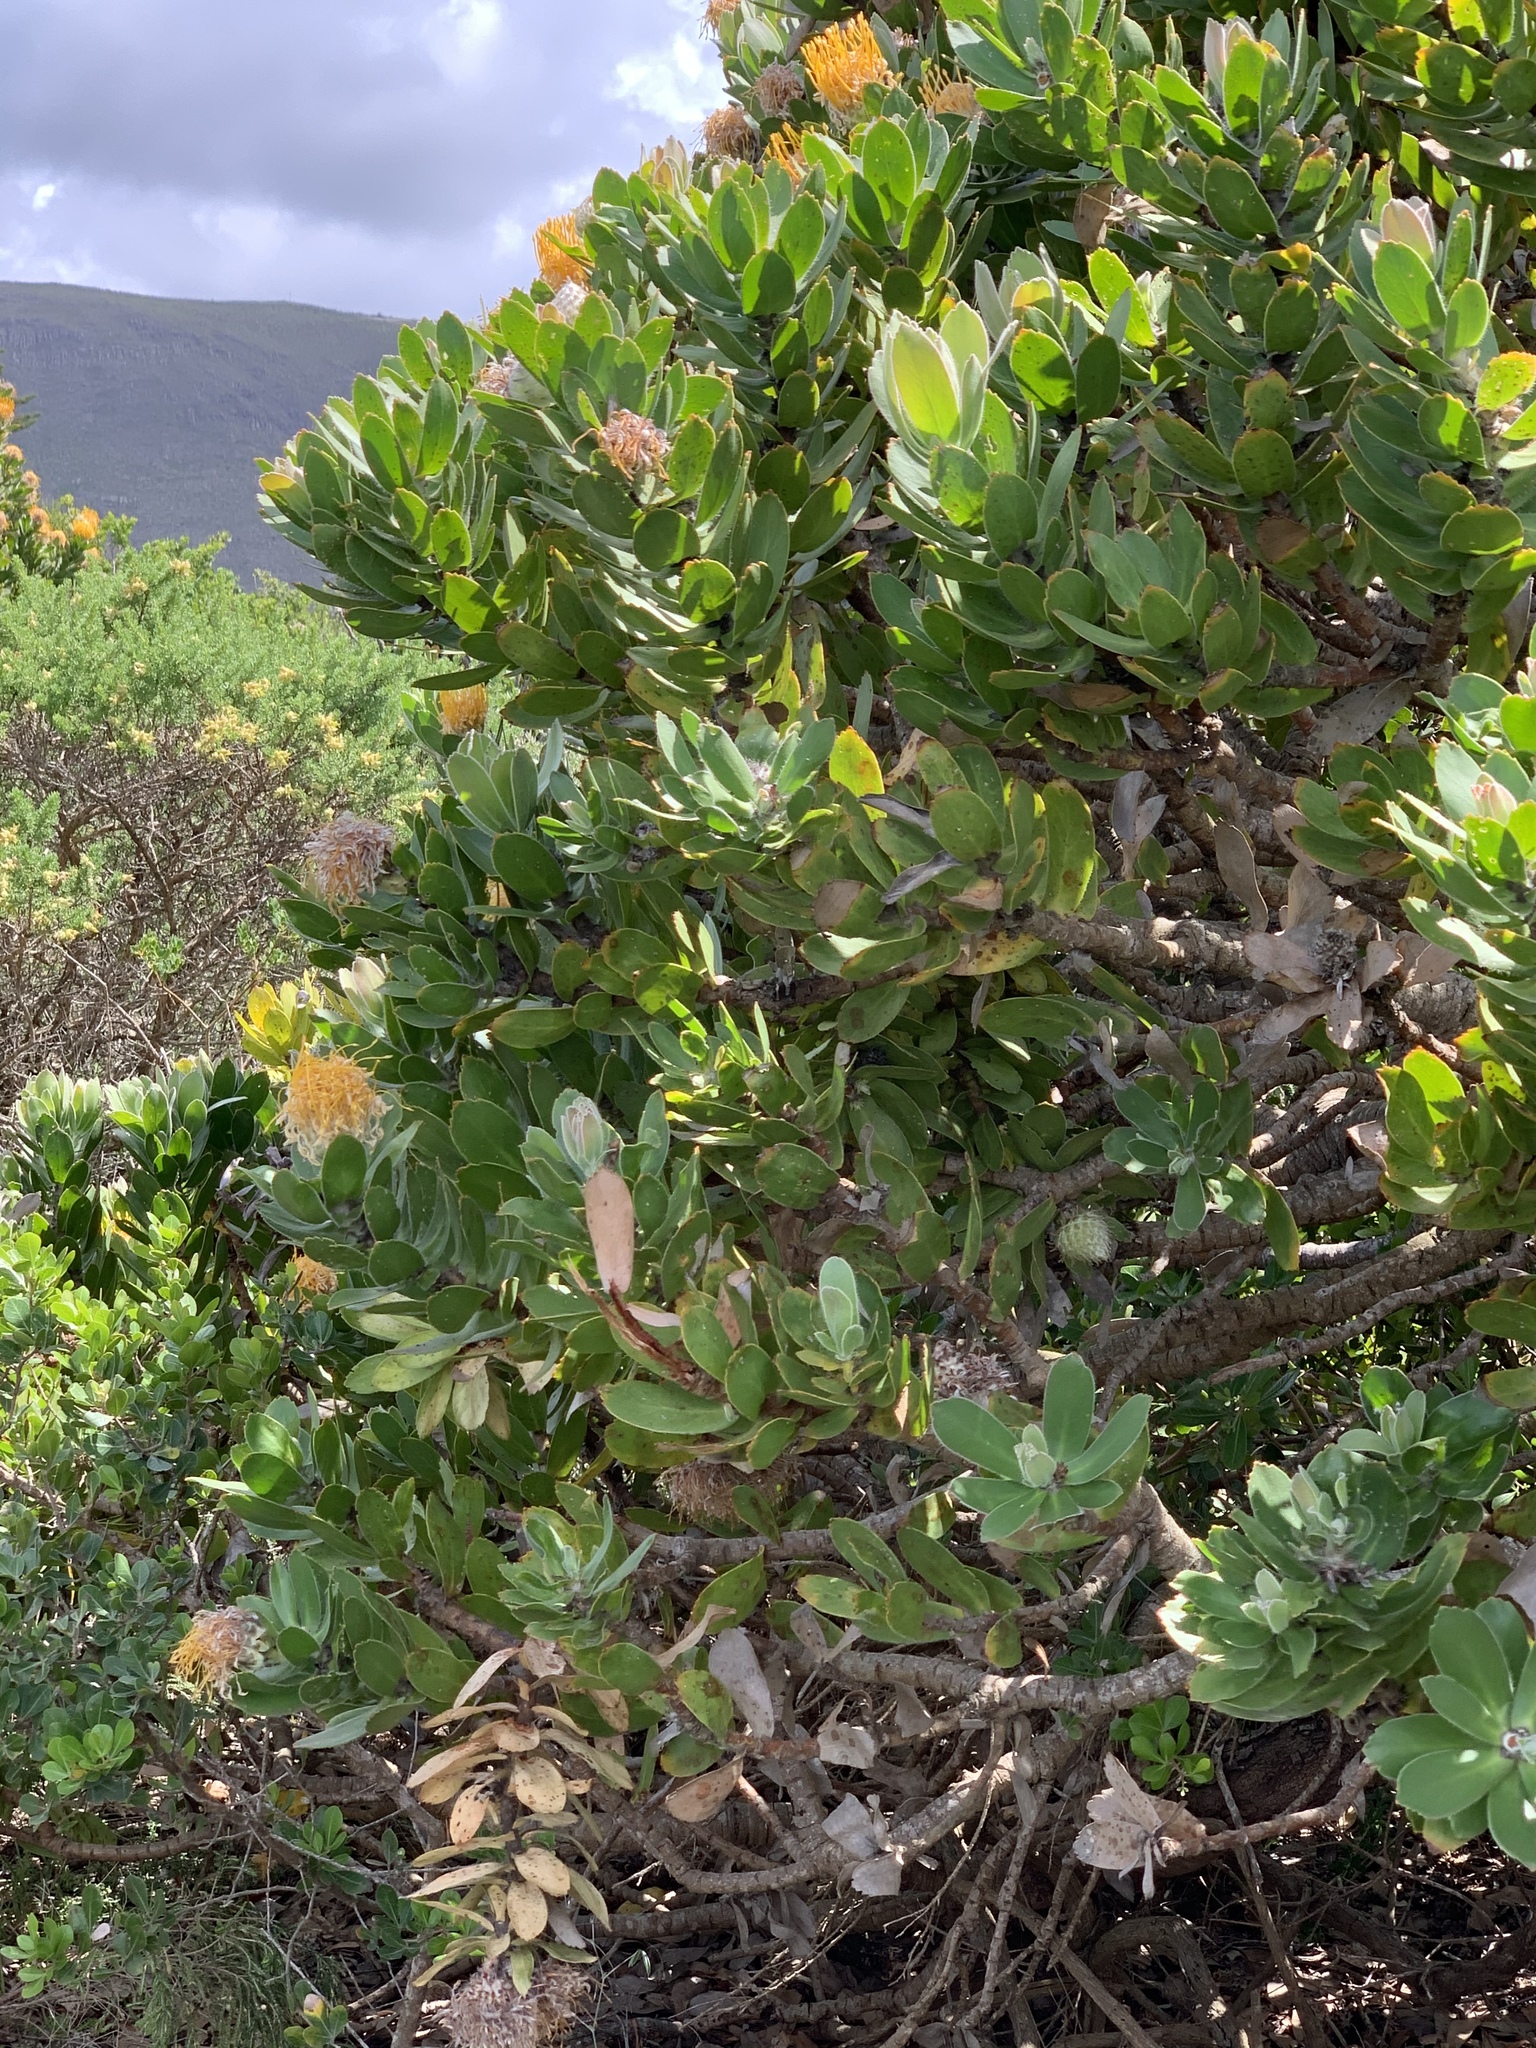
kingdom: Plantae
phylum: Tracheophyta
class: Magnoliopsida
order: Proteales
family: Proteaceae
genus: Leucospermum
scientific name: Leucospermum conocarpodendron
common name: Tree pincushion
